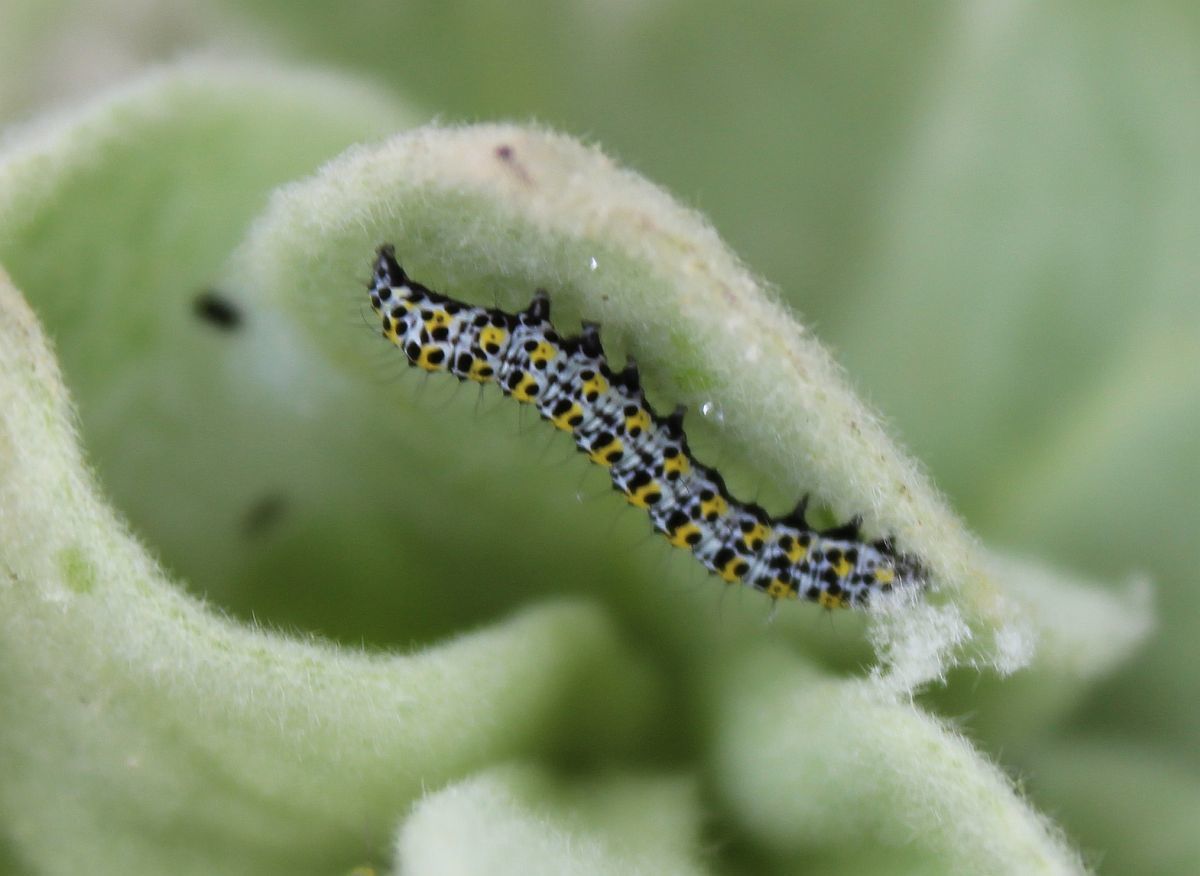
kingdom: Animalia
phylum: Arthropoda
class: Insecta
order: Lepidoptera
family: Noctuidae
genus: Cucullia
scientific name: Cucullia verbasci
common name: Mullein
